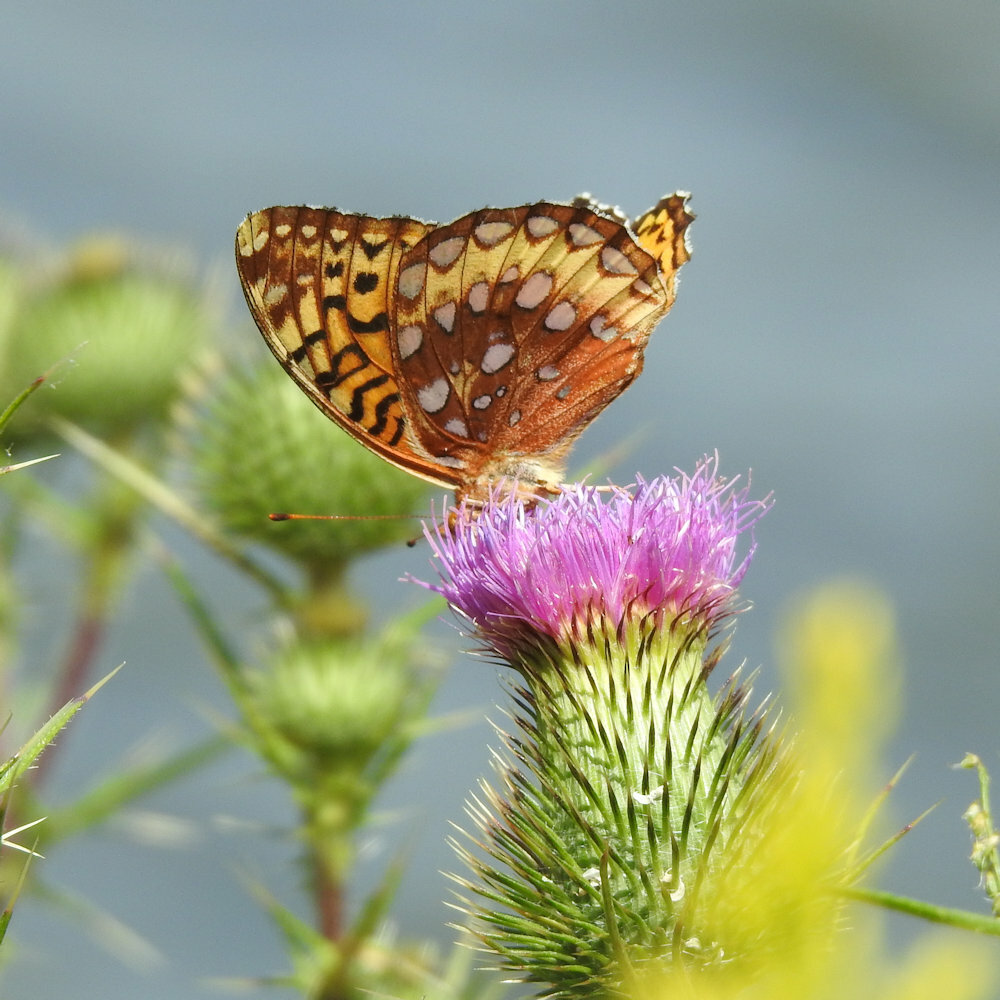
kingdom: Animalia
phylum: Arthropoda
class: Insecta
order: Lepidoptera
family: Nymphalidae
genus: Speyeria
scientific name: Speyeria cybele
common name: Great spangled fritillary
